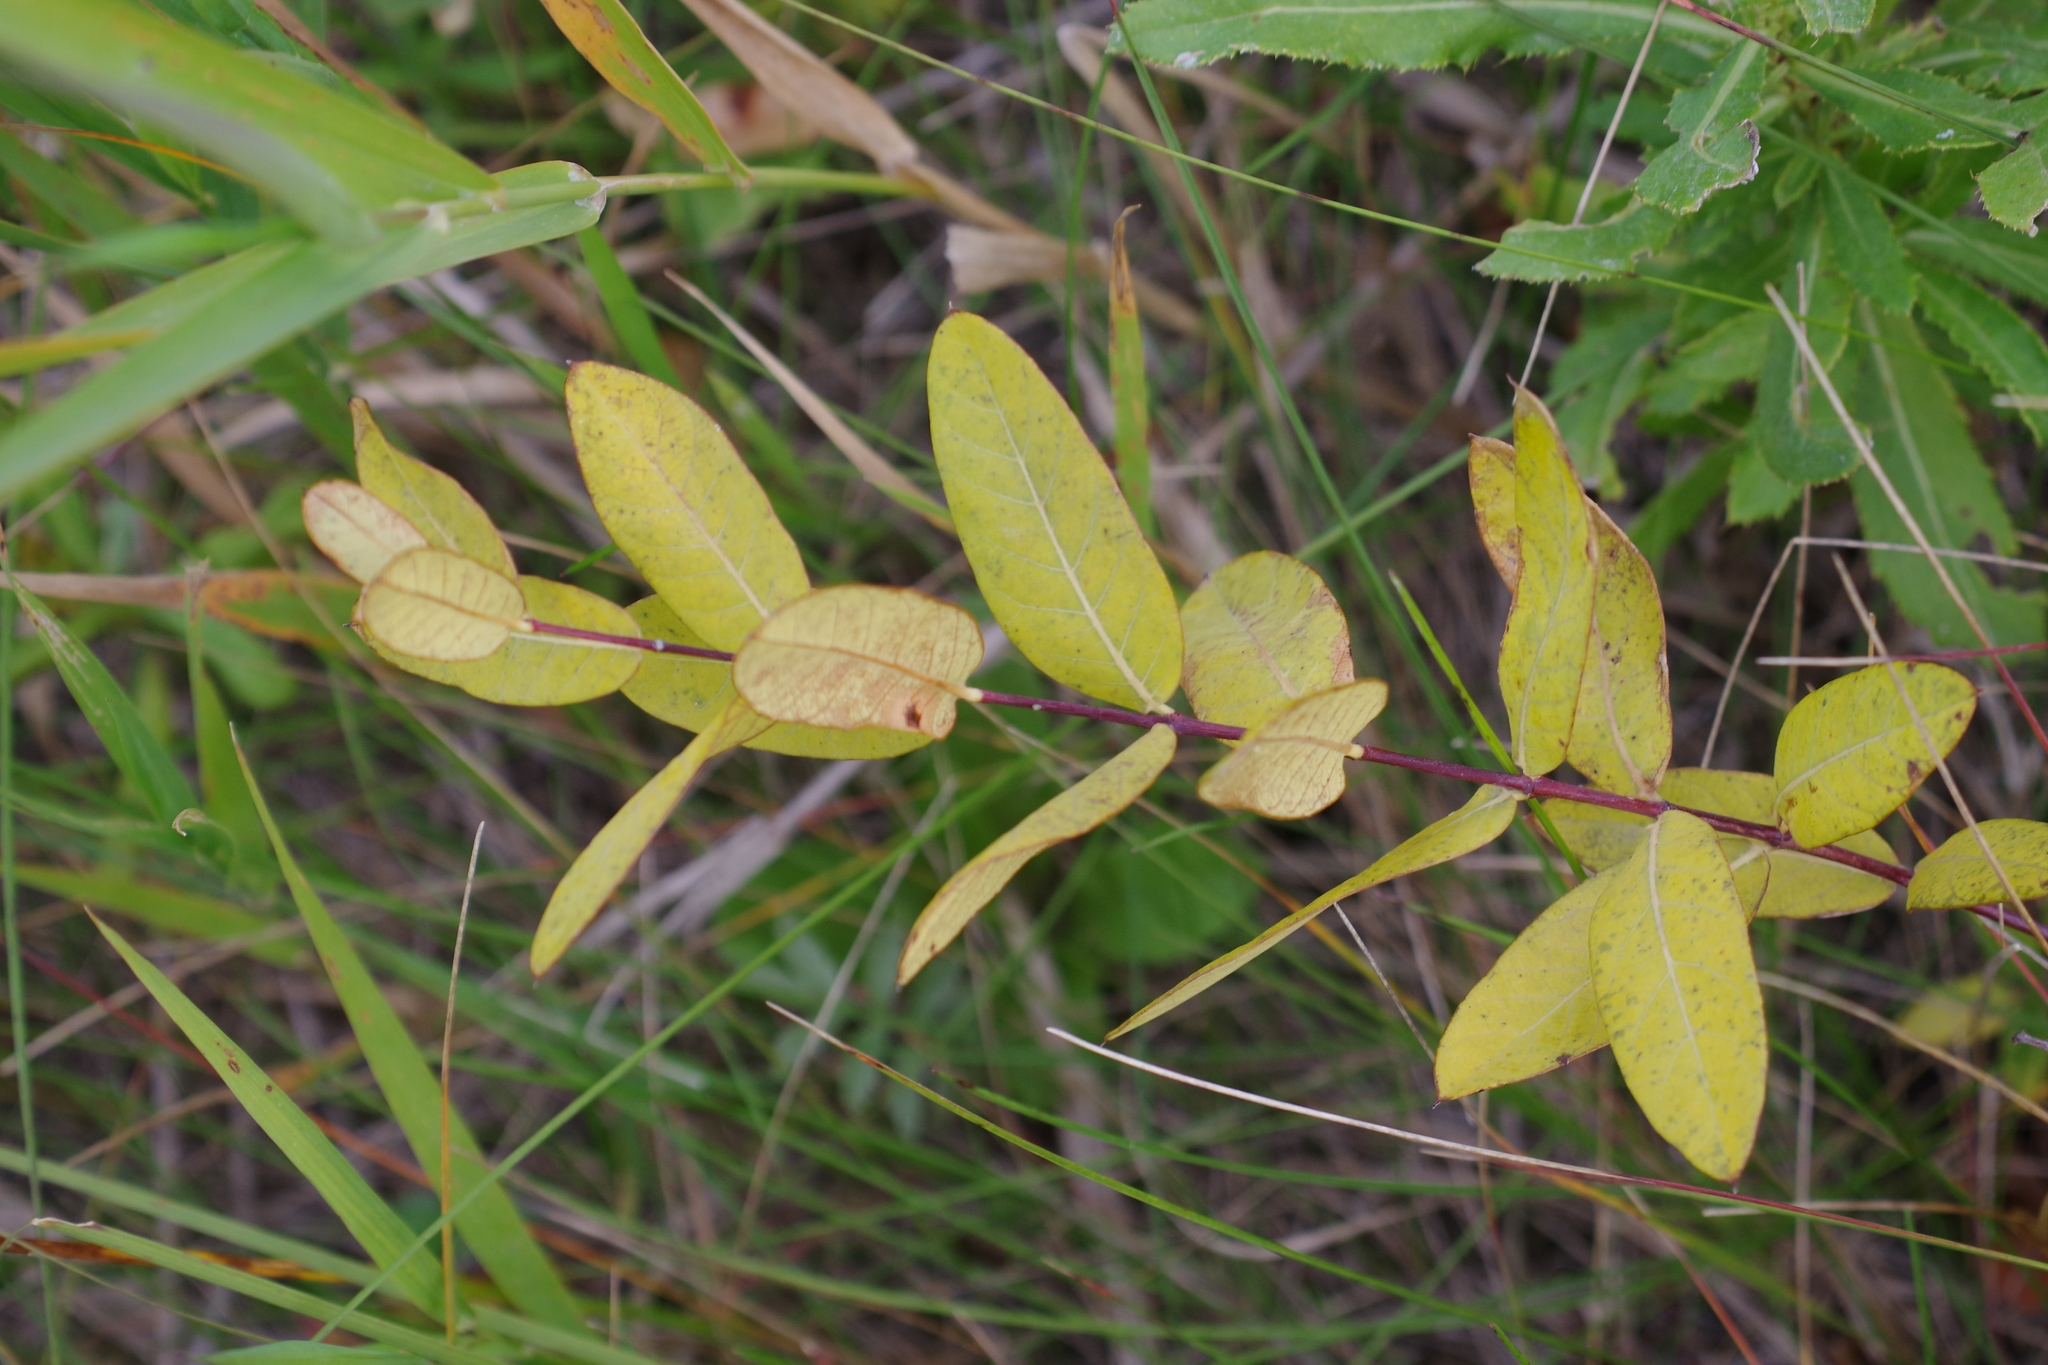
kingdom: Plantae
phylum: Tracheophyta
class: Magnoliopsida
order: Gentianales
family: Apocynaceae
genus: Apocynum
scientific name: Apocynum cannabinum
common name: Hemp dogbane
